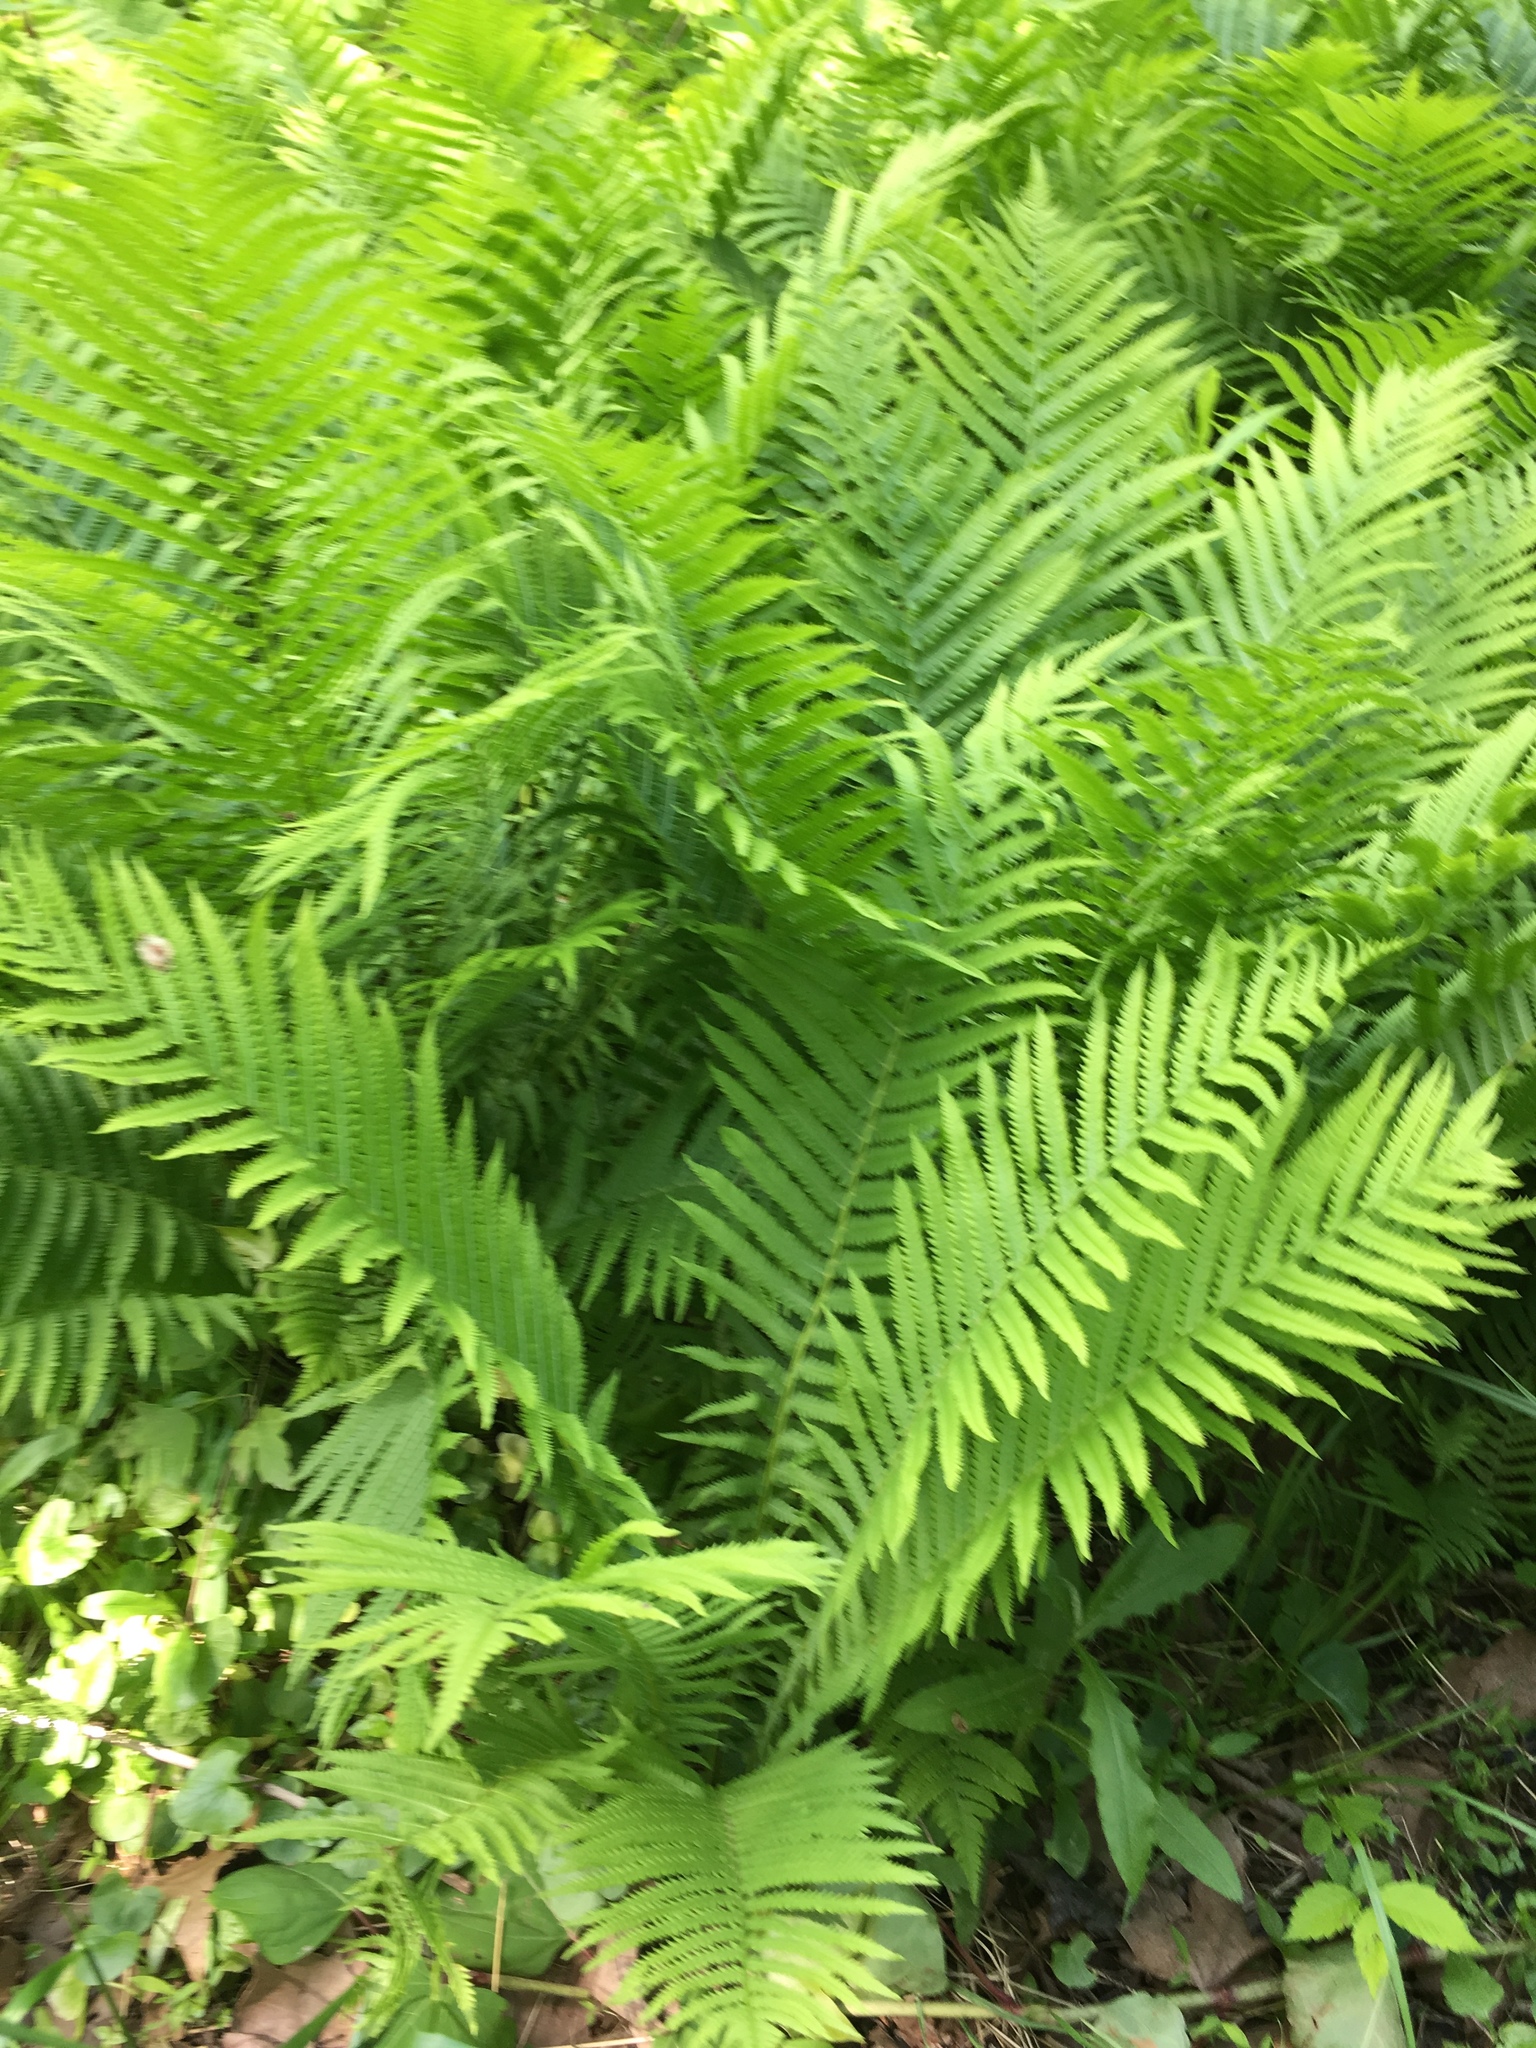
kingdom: Plantae
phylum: Tracheophyta
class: Polypodiopsida
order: Polypodiales
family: Onocleaceae
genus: Matteuccia
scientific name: Matteuccia struthiopteris
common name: Ostrich fern
